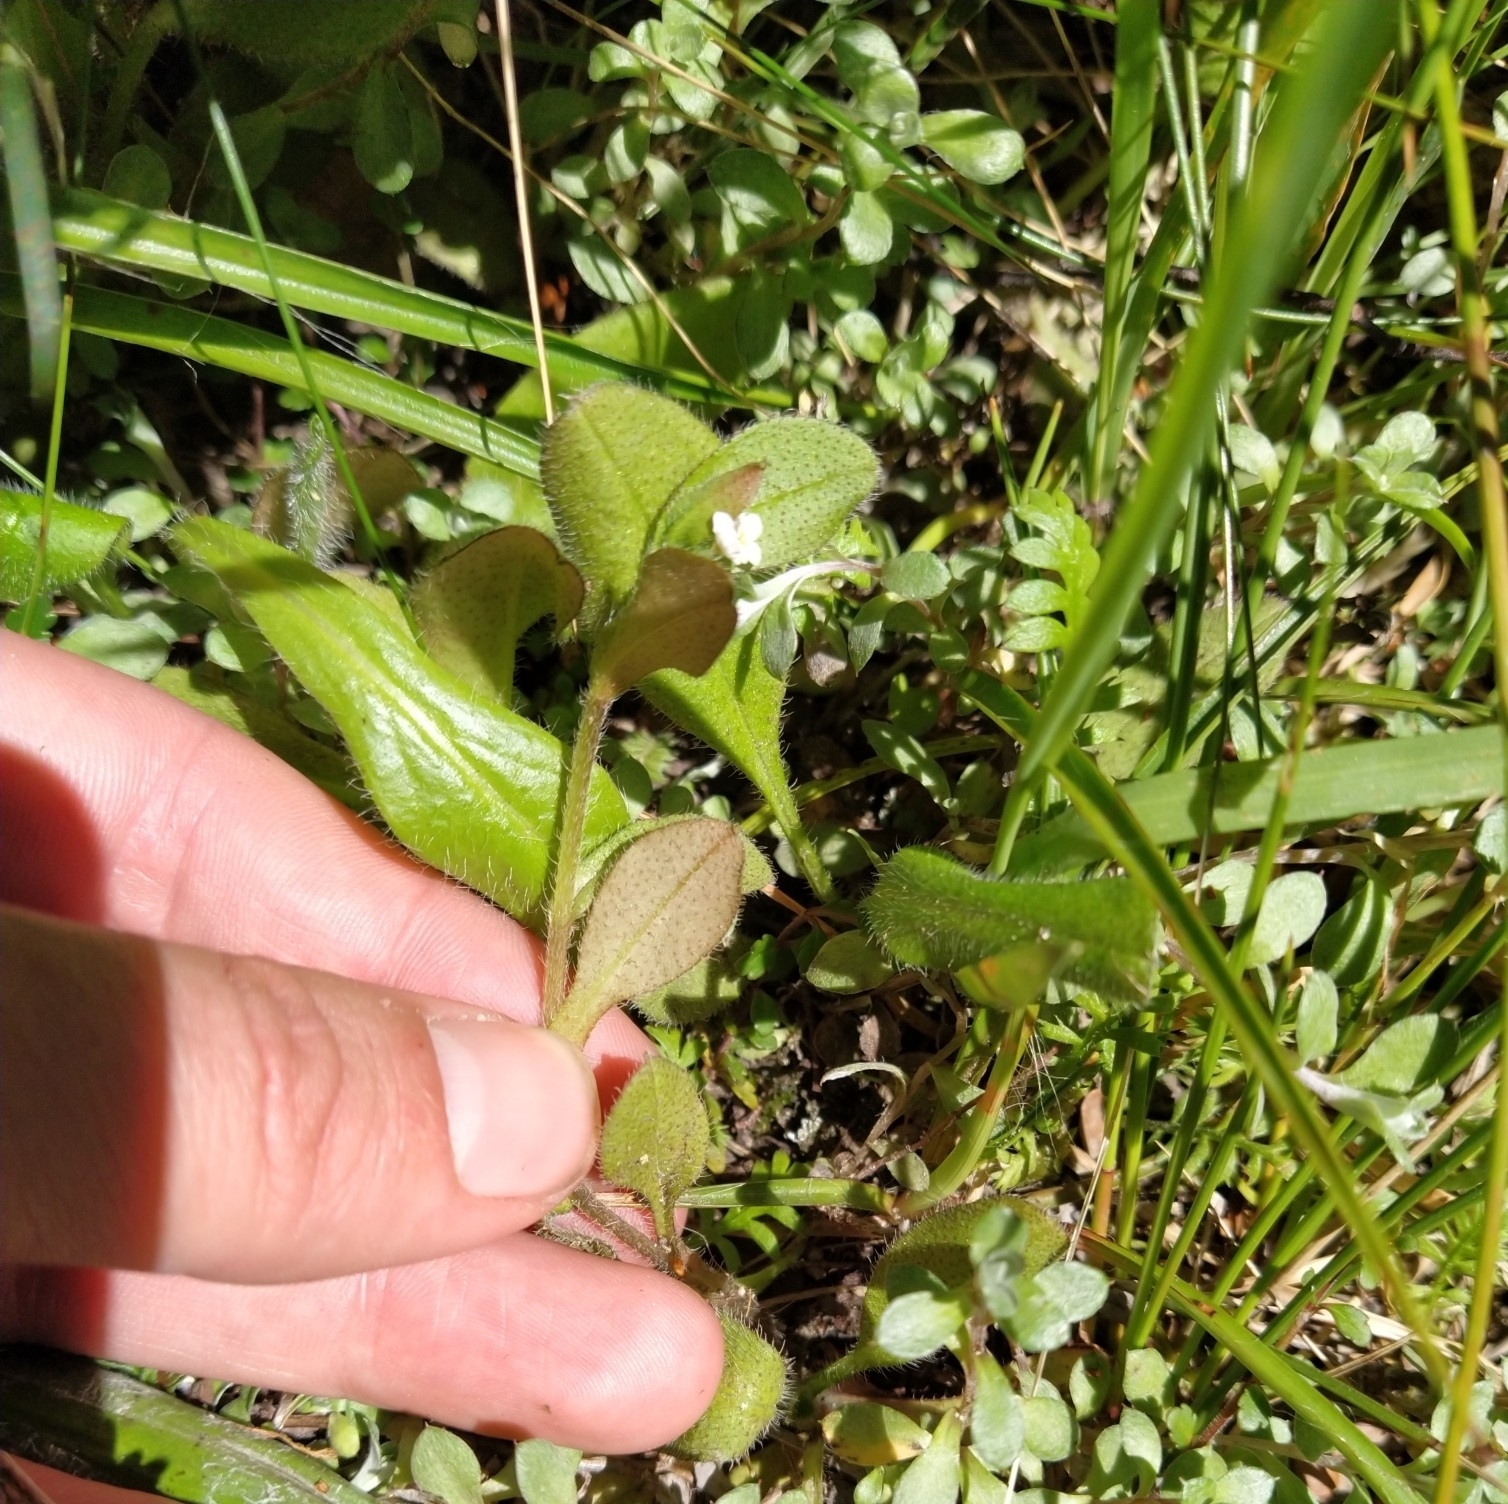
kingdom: Plantae
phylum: Tracheophyta
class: Magnoliopsida
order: Boraginales
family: Boraginaceae
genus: Myosotis
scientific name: Myosotis forsteri
